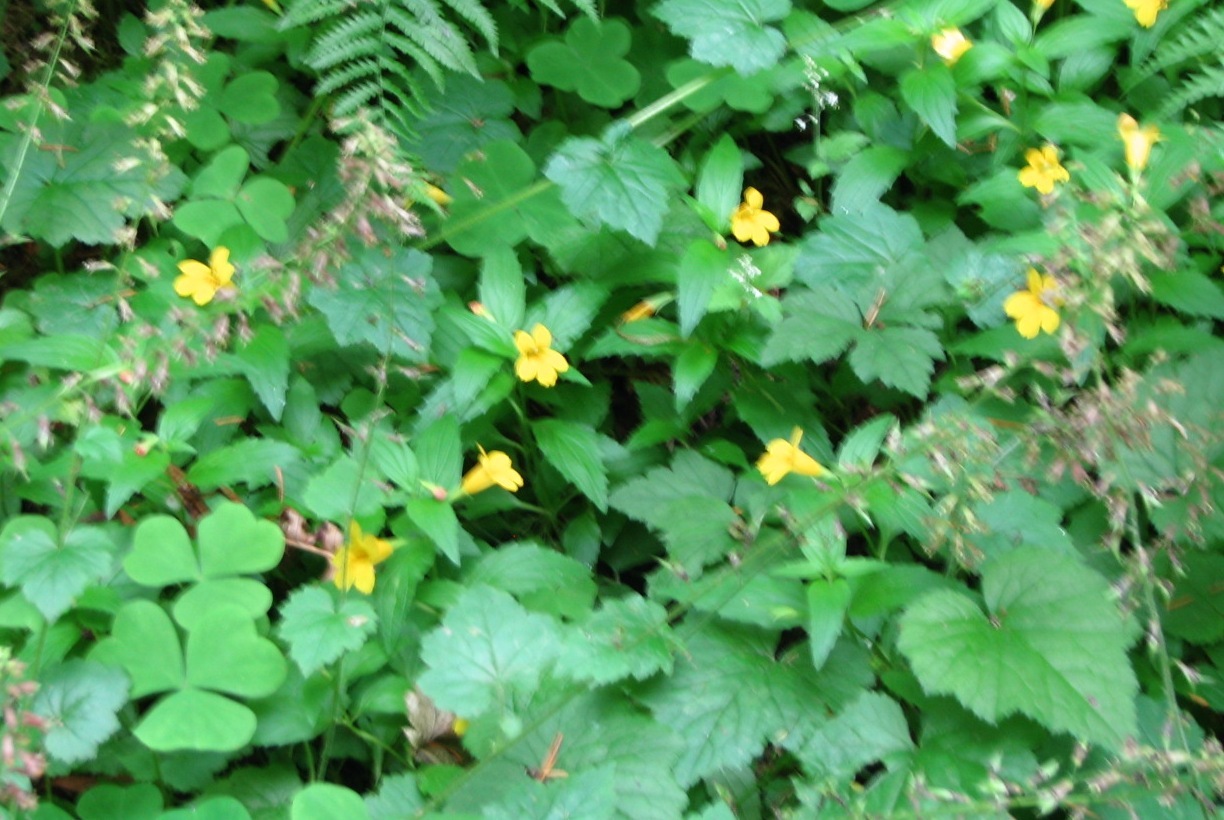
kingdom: Plantae
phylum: Tracheophyta
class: Magnoliopsida
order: Lamiales
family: Phrymaceae
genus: Erythranthe
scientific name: Erythranthe dentata
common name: Coastal monkeyflower
